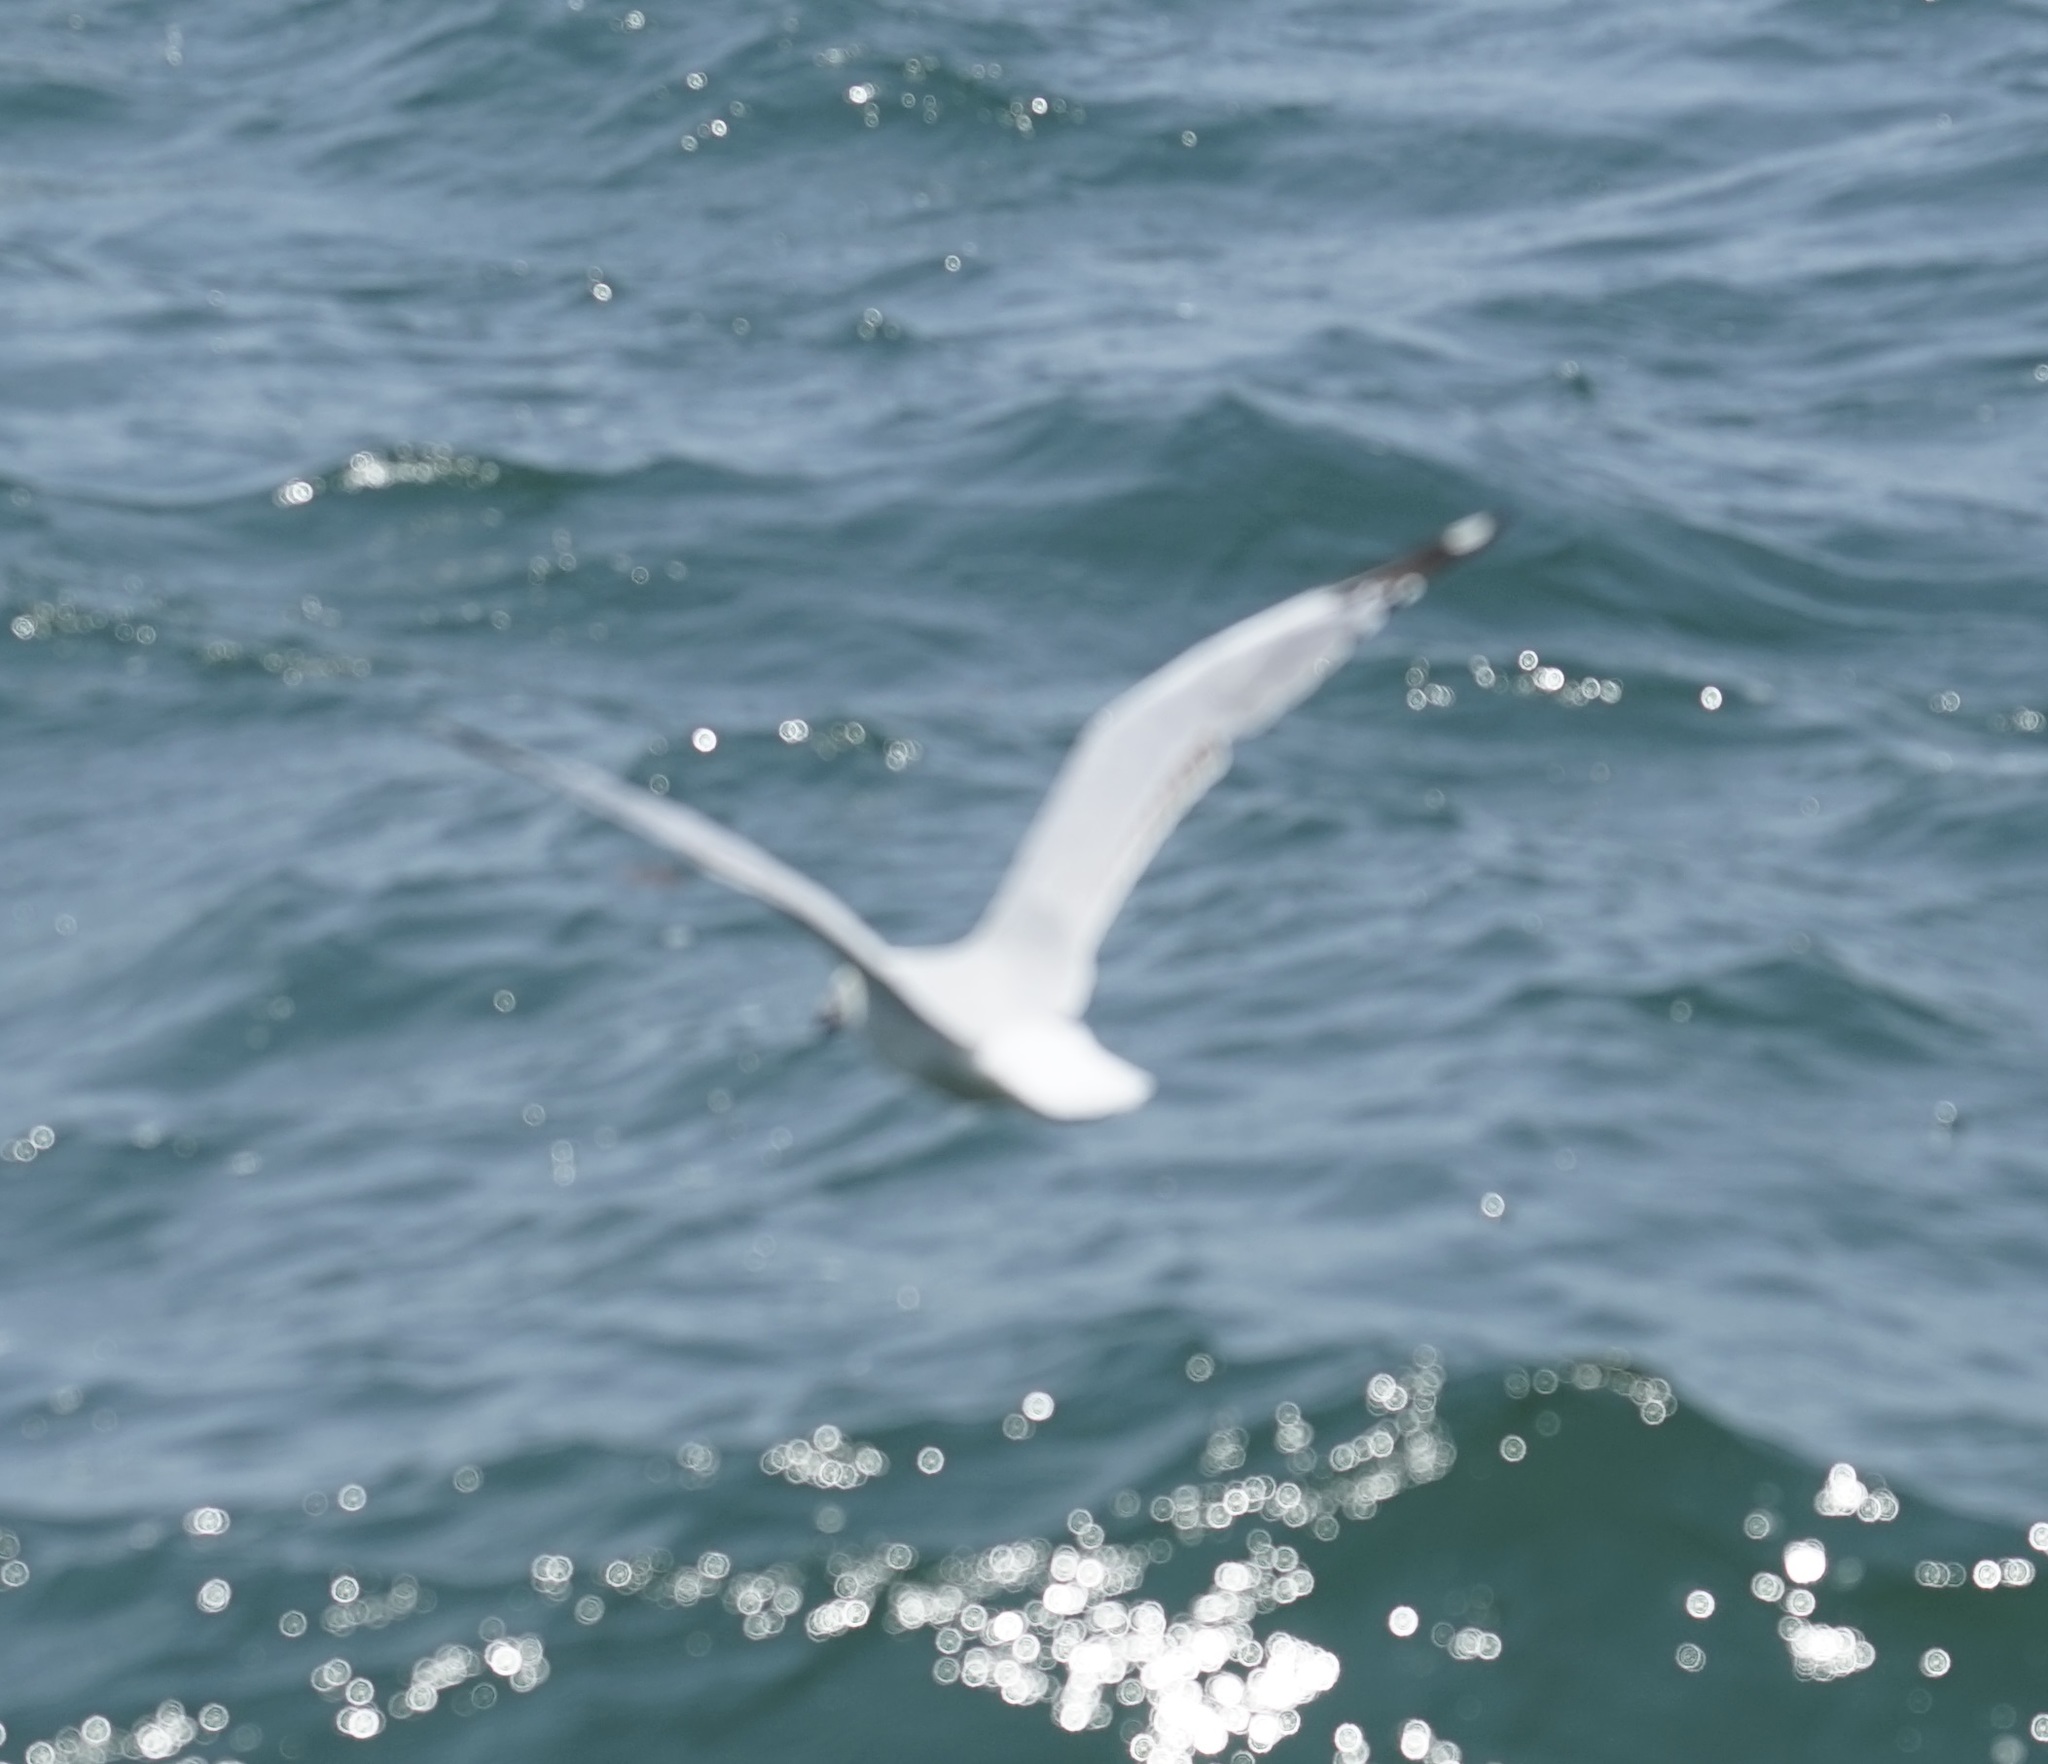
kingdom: Animalia
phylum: Chordata
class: Aves
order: Charadriiformes
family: Laridae
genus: Chroicocephalus
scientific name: Chroicocephalus novaehollandiae
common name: Silver gull
